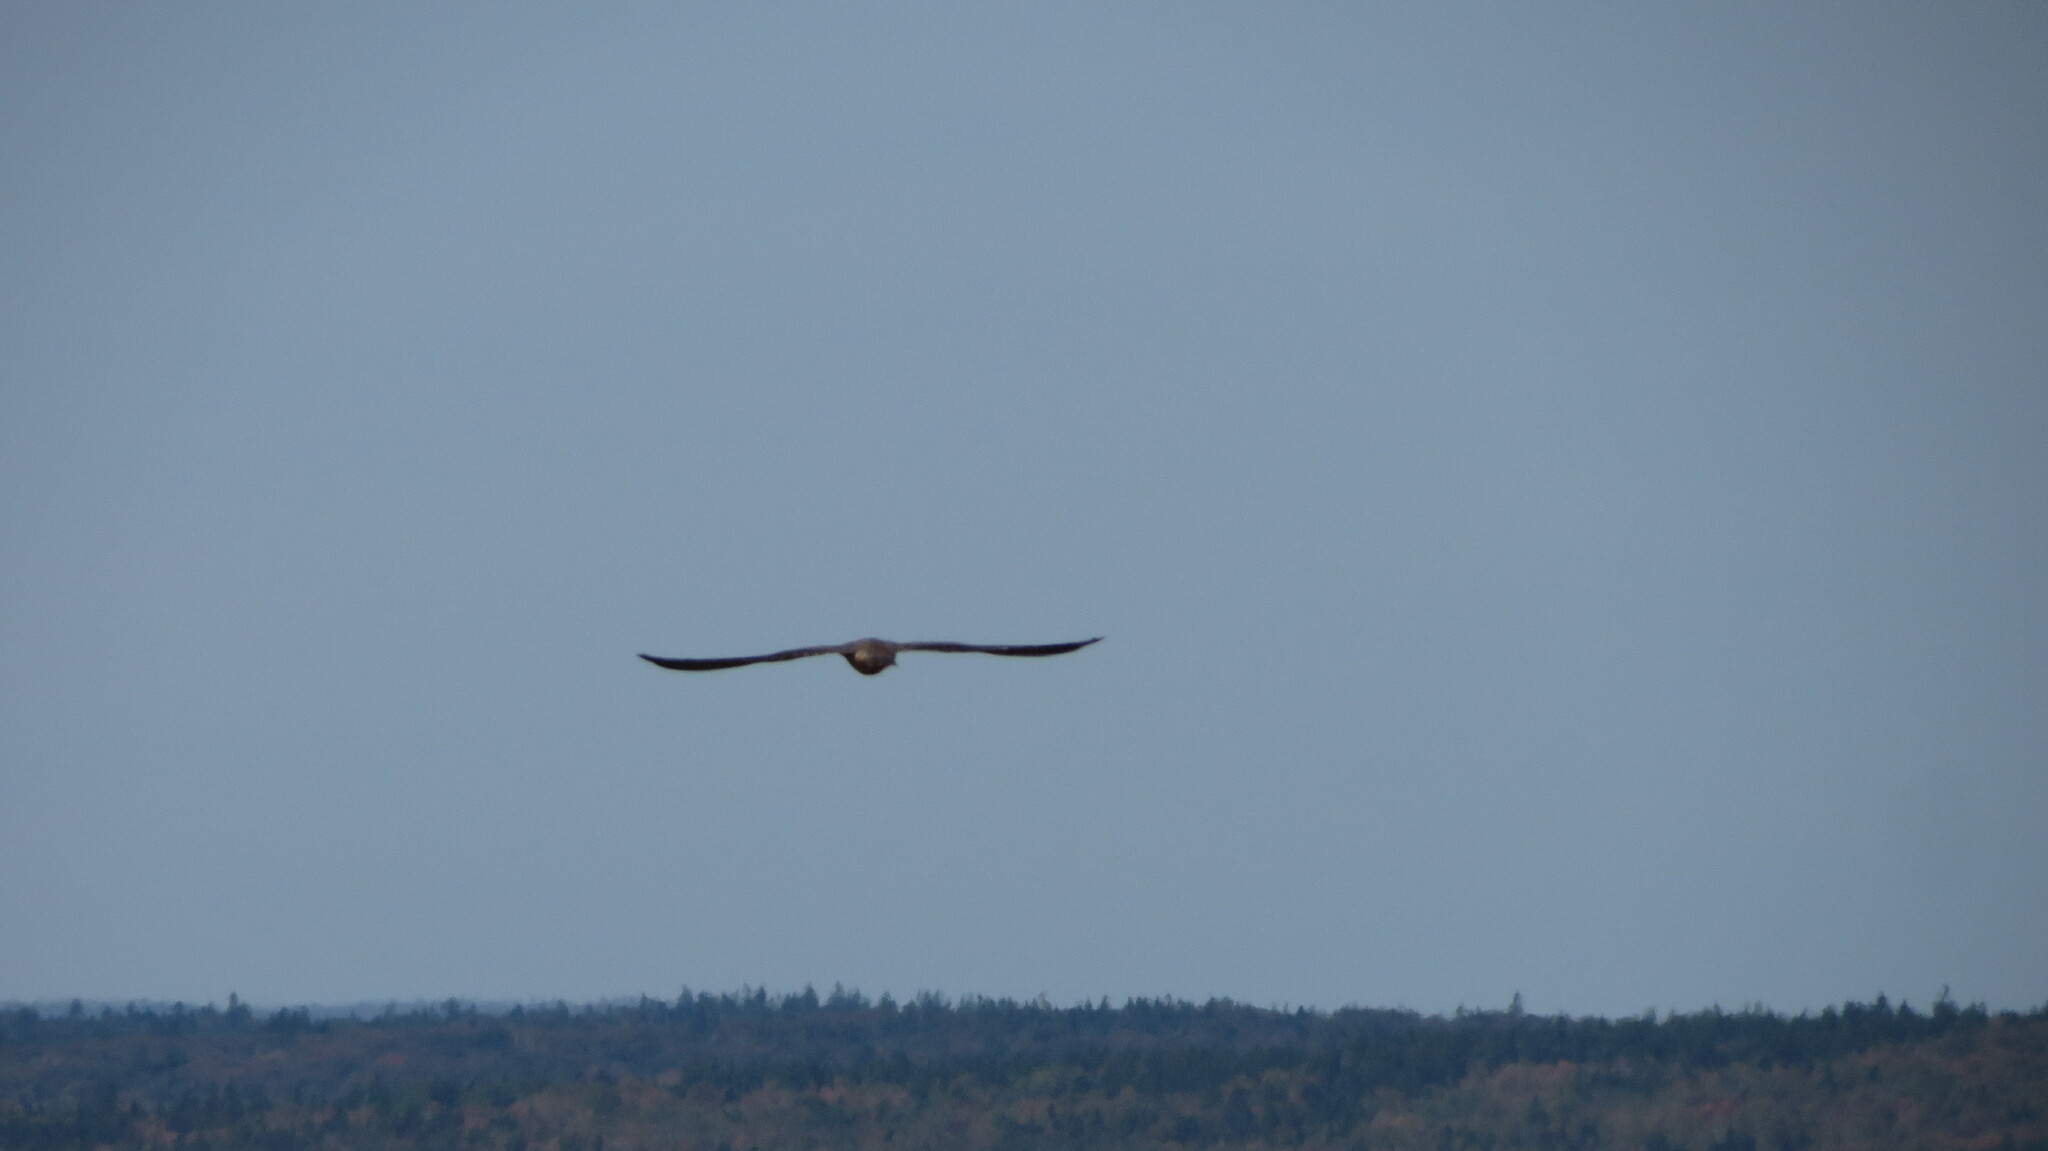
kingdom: Animalia
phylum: Chordata
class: Aves
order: Falconiformes
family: Falconidae
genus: Falco
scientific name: Falco peregrinus
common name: Peregrine falcon
